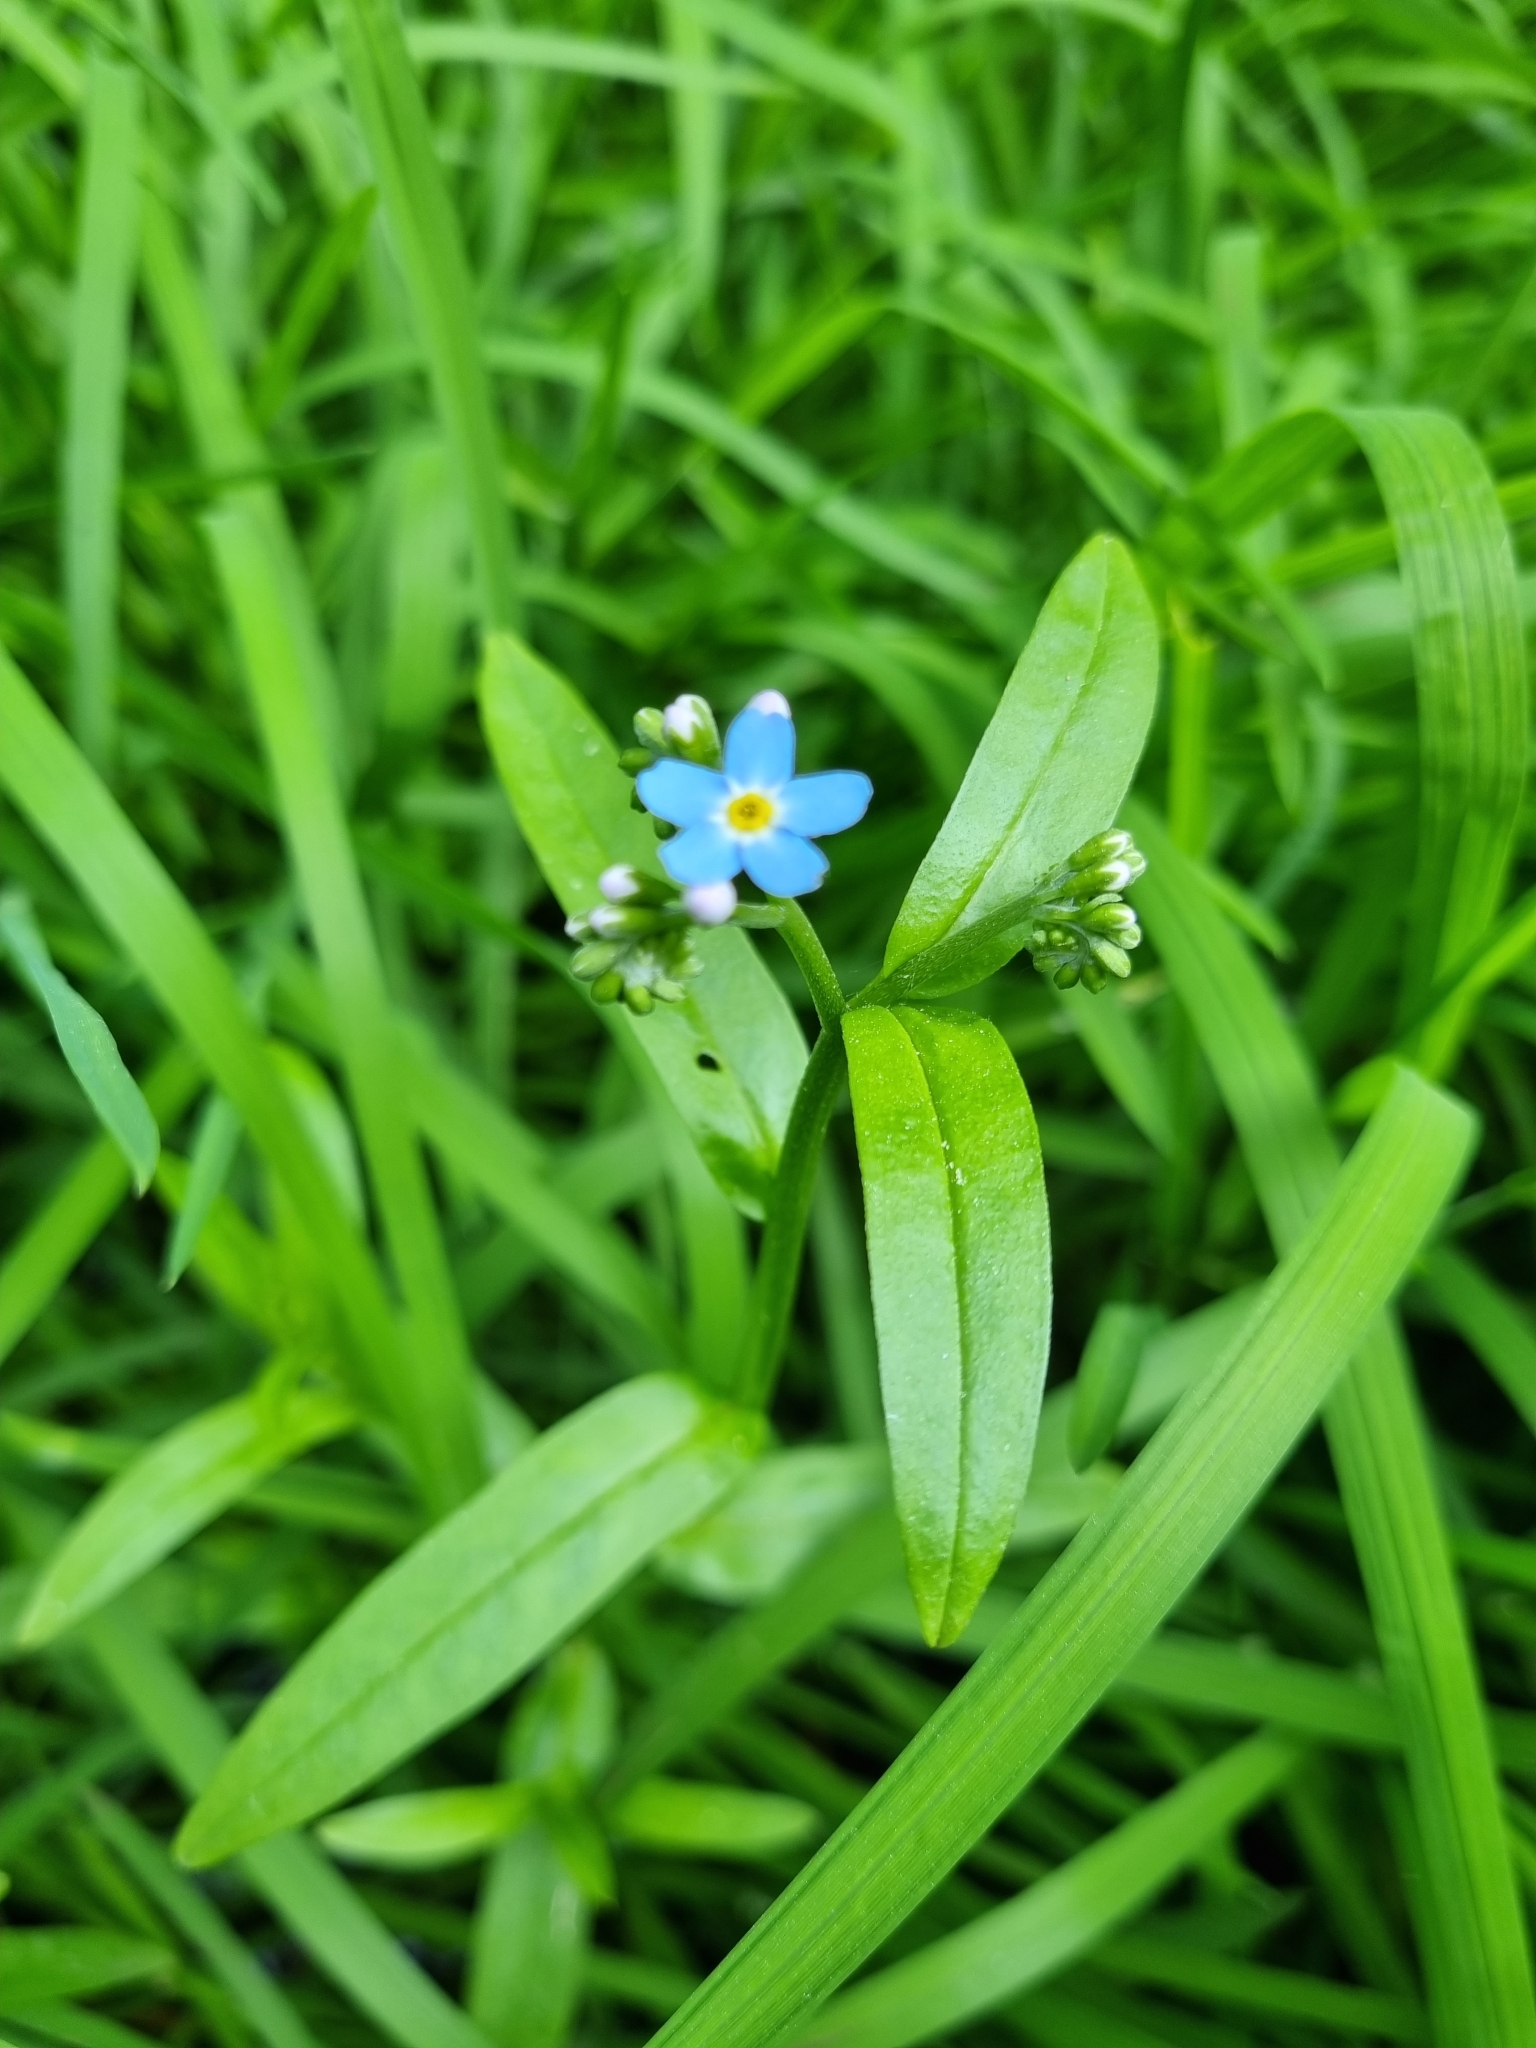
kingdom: Plantae
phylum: Tracheophyta
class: Magnoliopsida
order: Boraginales
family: Boraginaceae
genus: Myosotis
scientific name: Myosotis scorpioides
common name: Water forget-me-not
